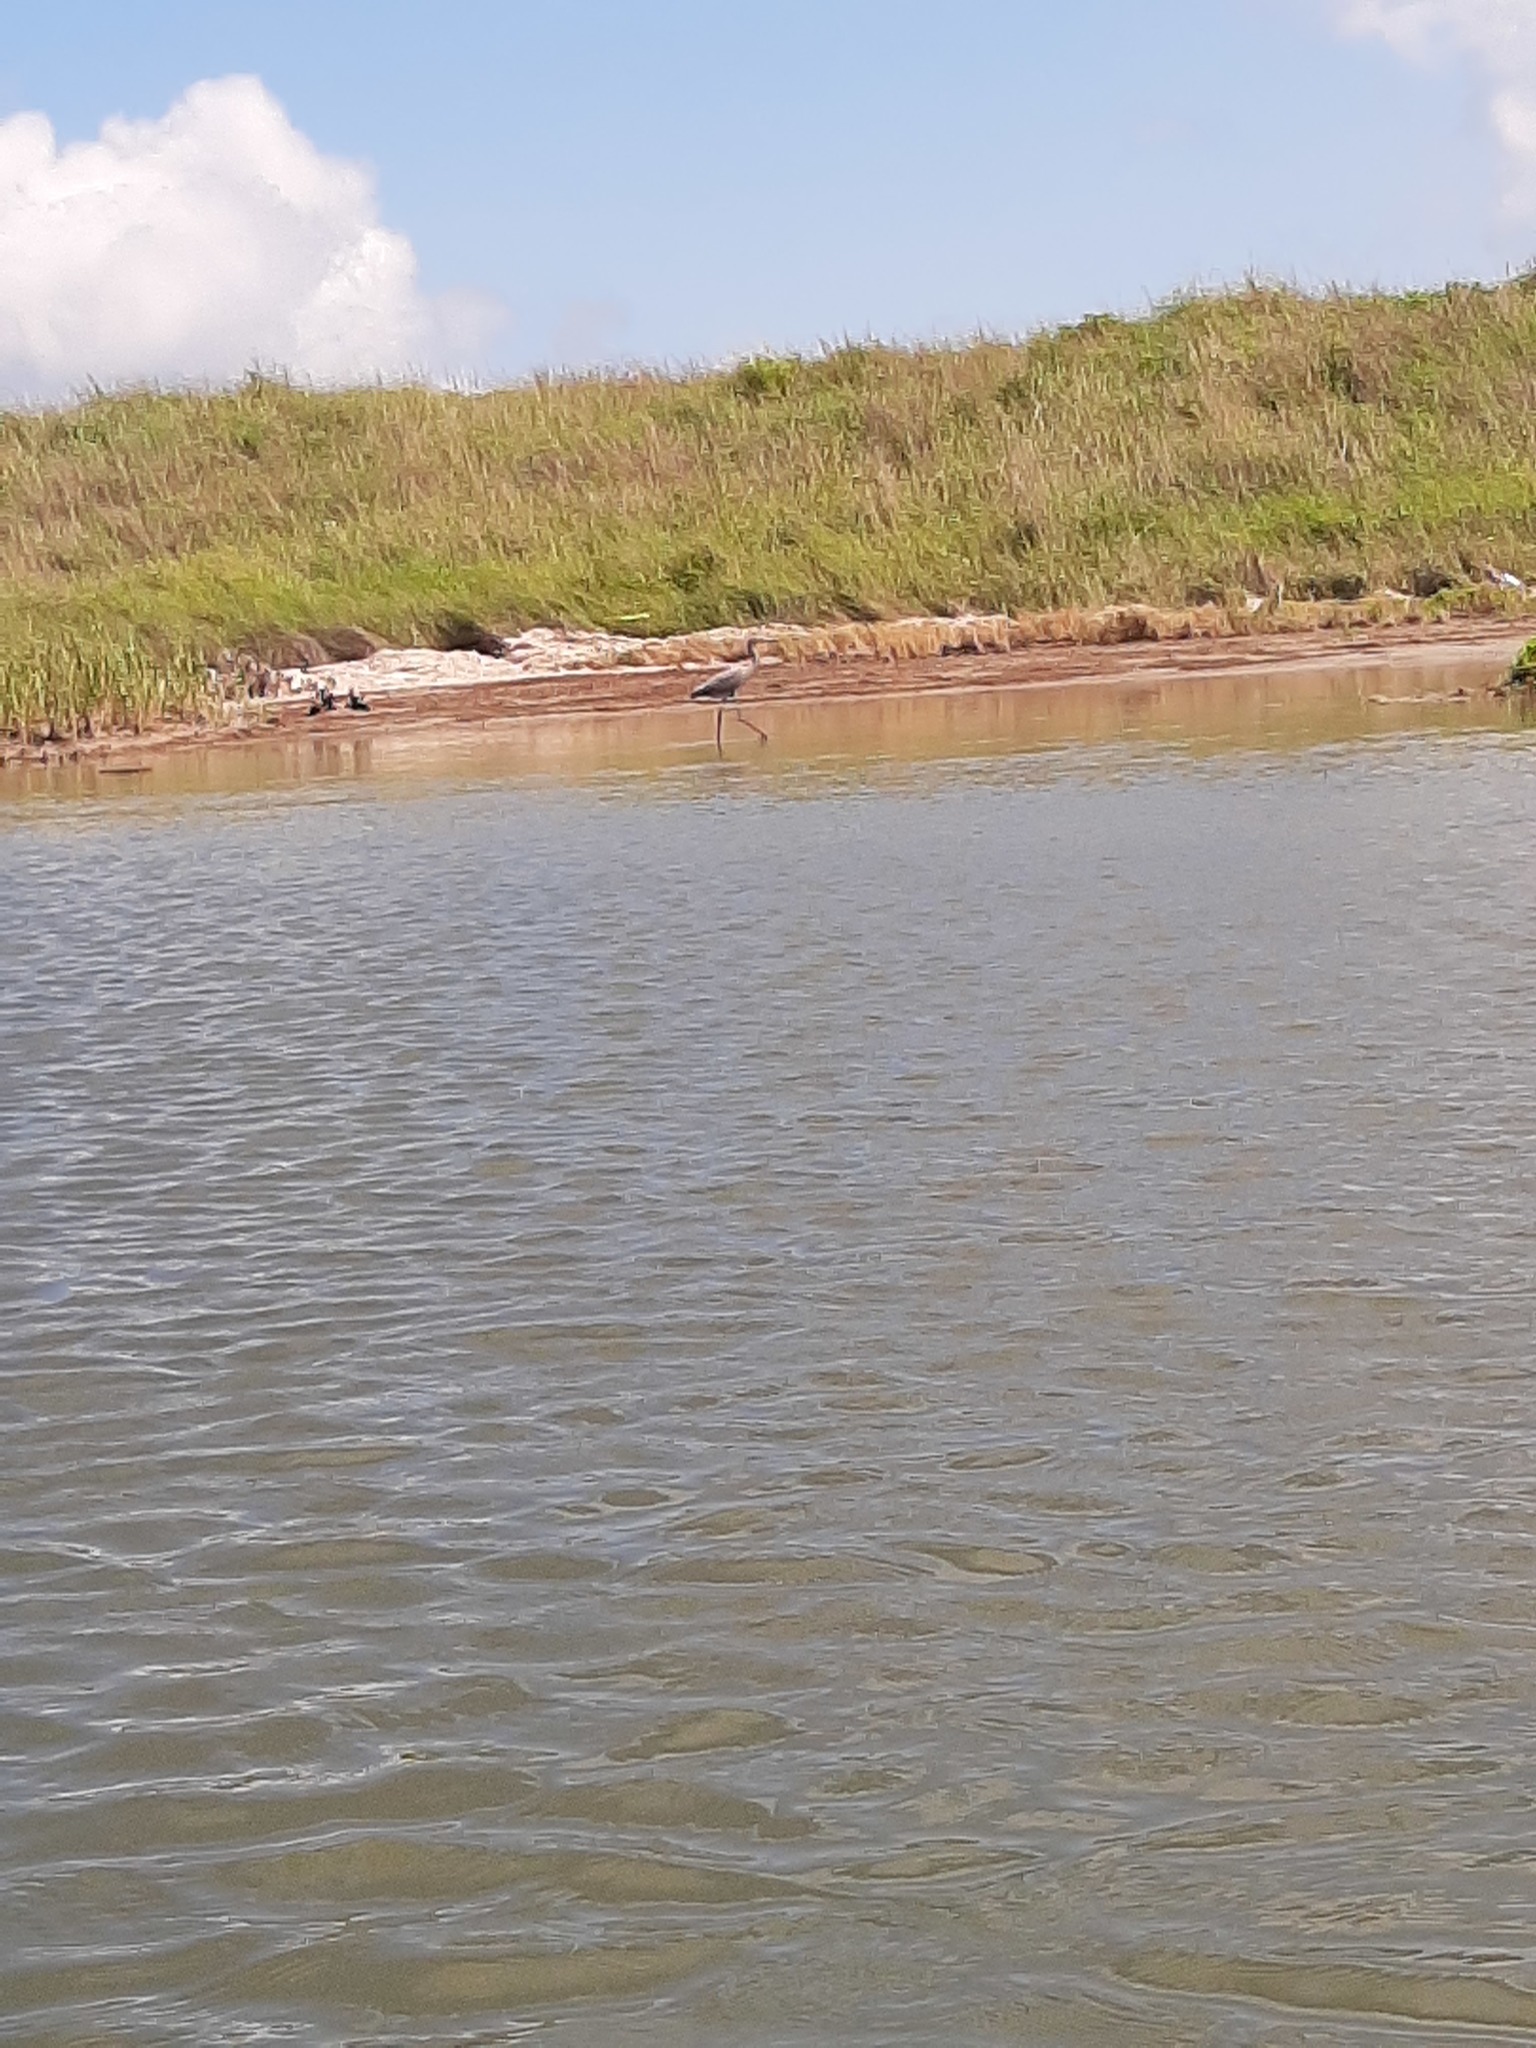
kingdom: Animalia
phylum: Chordata
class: Aves
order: Pelecaniformes
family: Ardeidae
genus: Egretta
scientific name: Egretta rufescens
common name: Reddish egret
